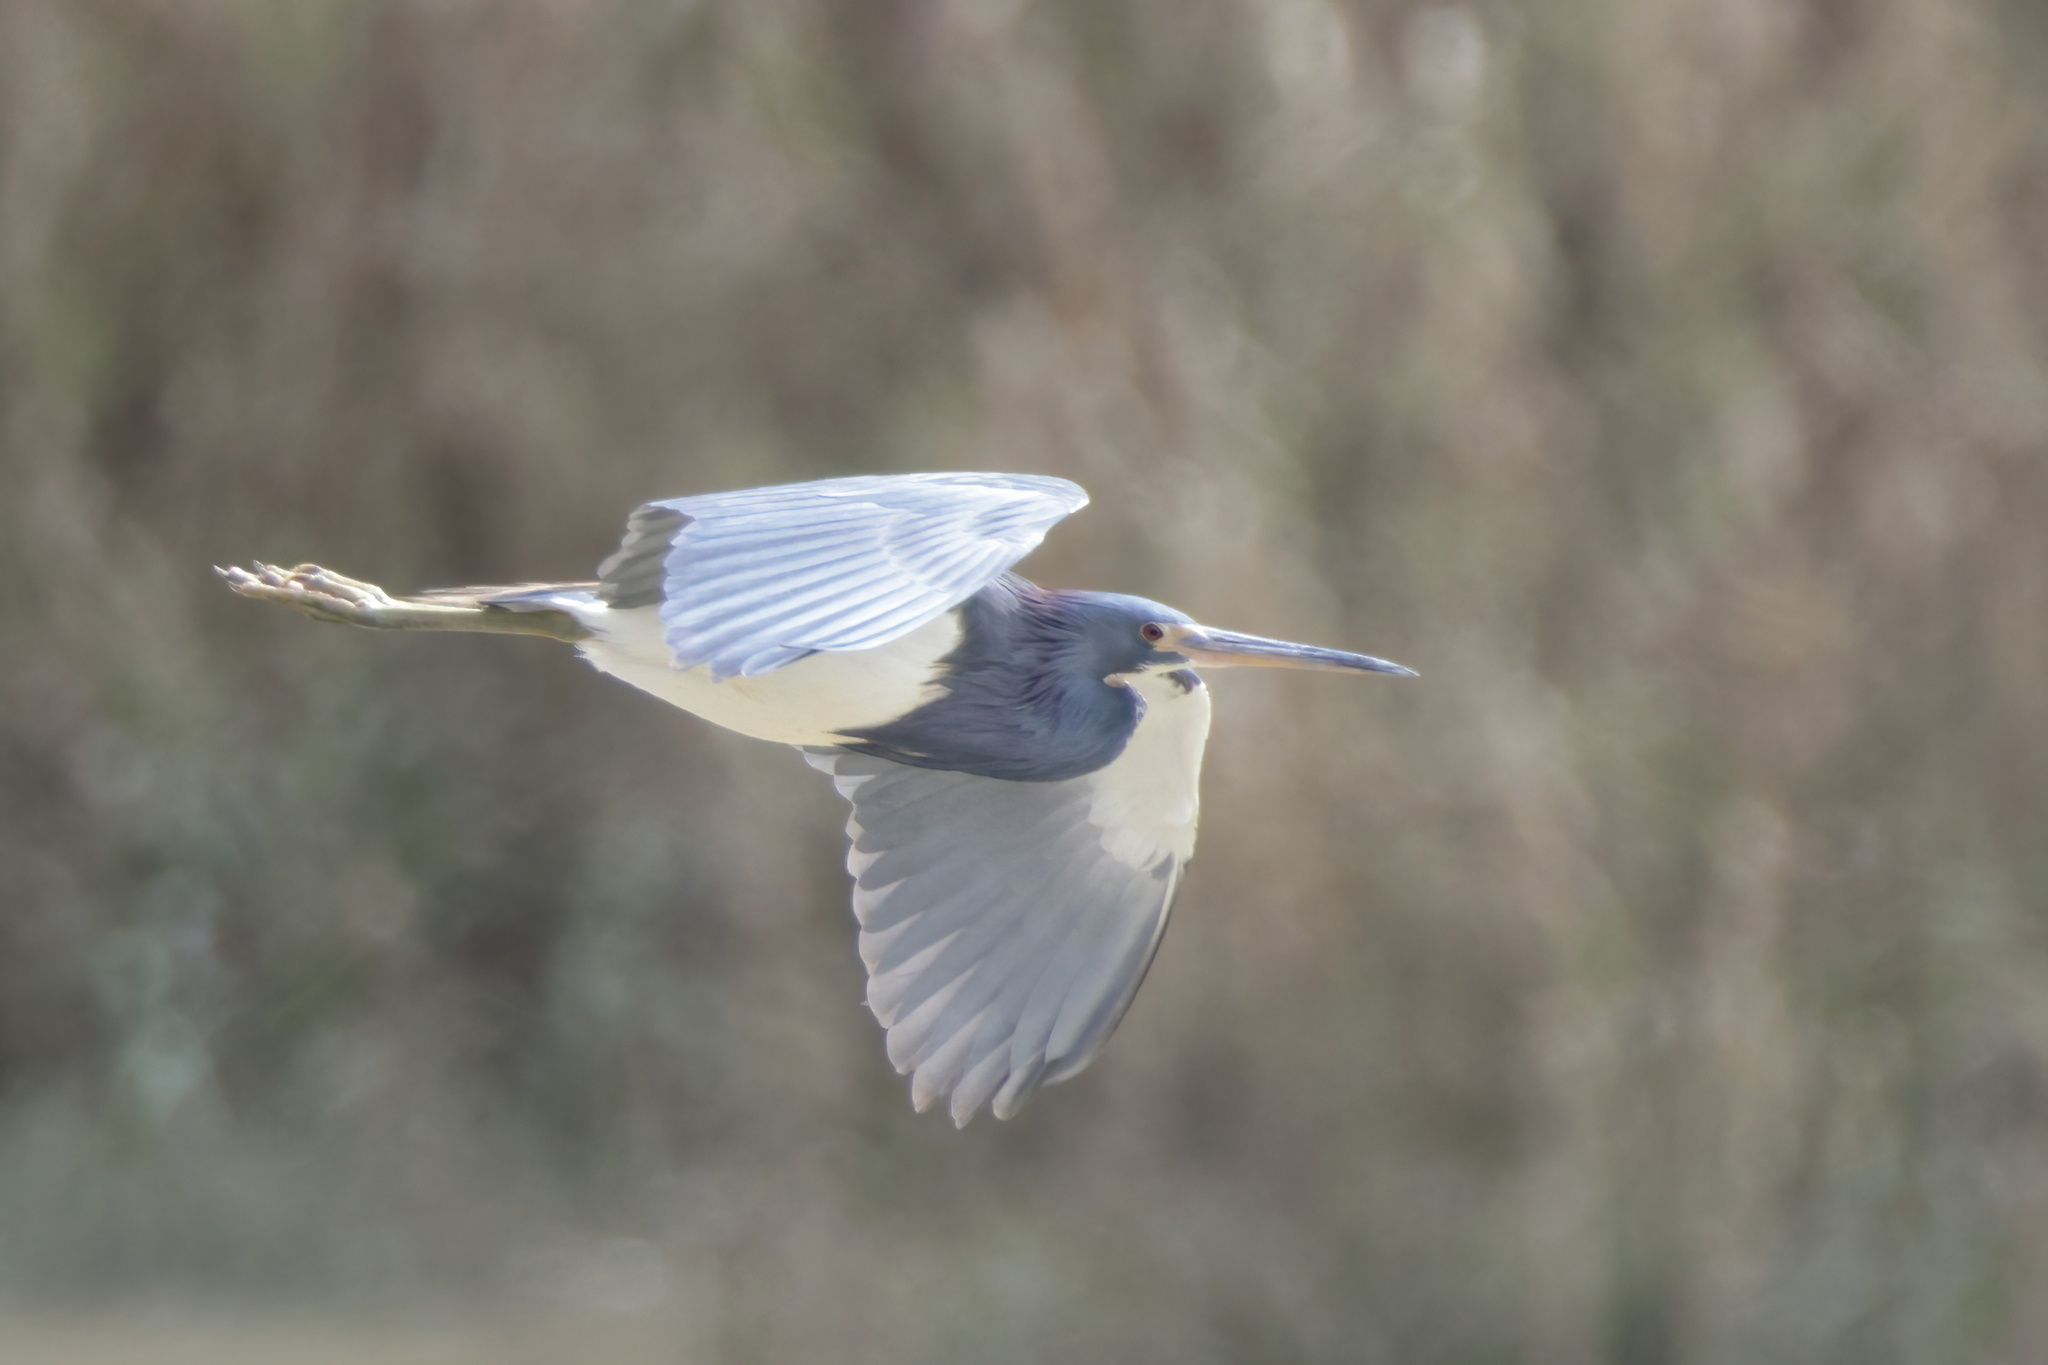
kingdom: Animalia
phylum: Chordata
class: Aves
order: Pelecaniformes
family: Ardeidae
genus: Egretta
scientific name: Egretta tricolor
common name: Tricolored heron
